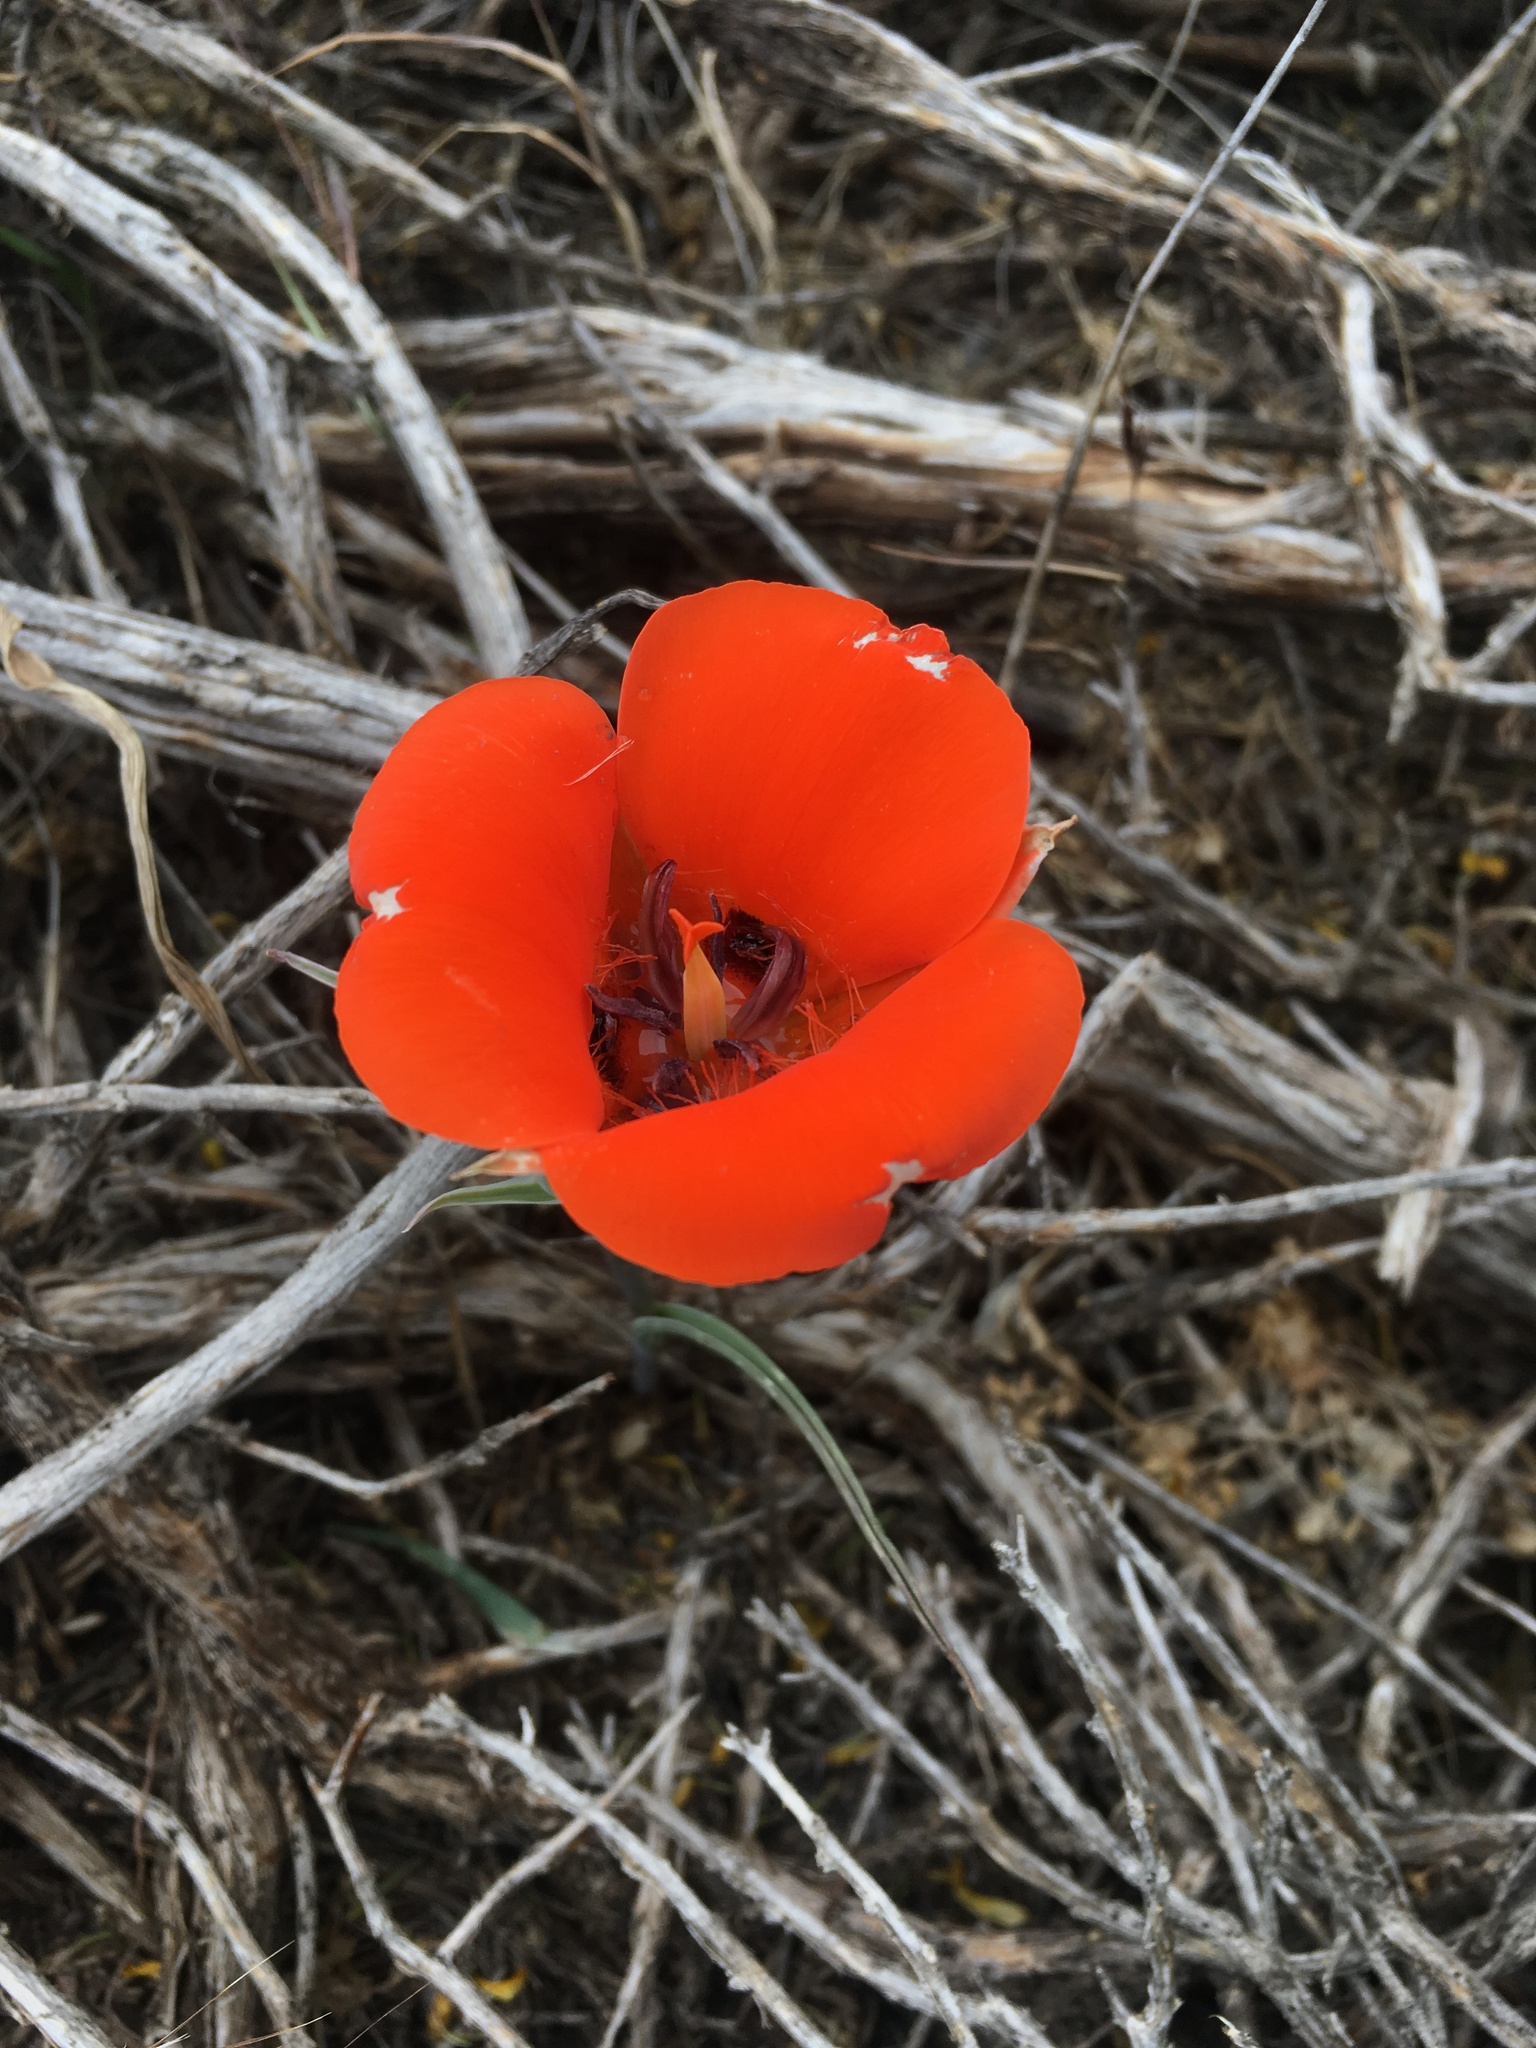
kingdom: Plantae
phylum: Tracheophyta
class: Liliopsida
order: Liliales
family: Liliaceae
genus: Calochortus
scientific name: Calochortus kennedyi
